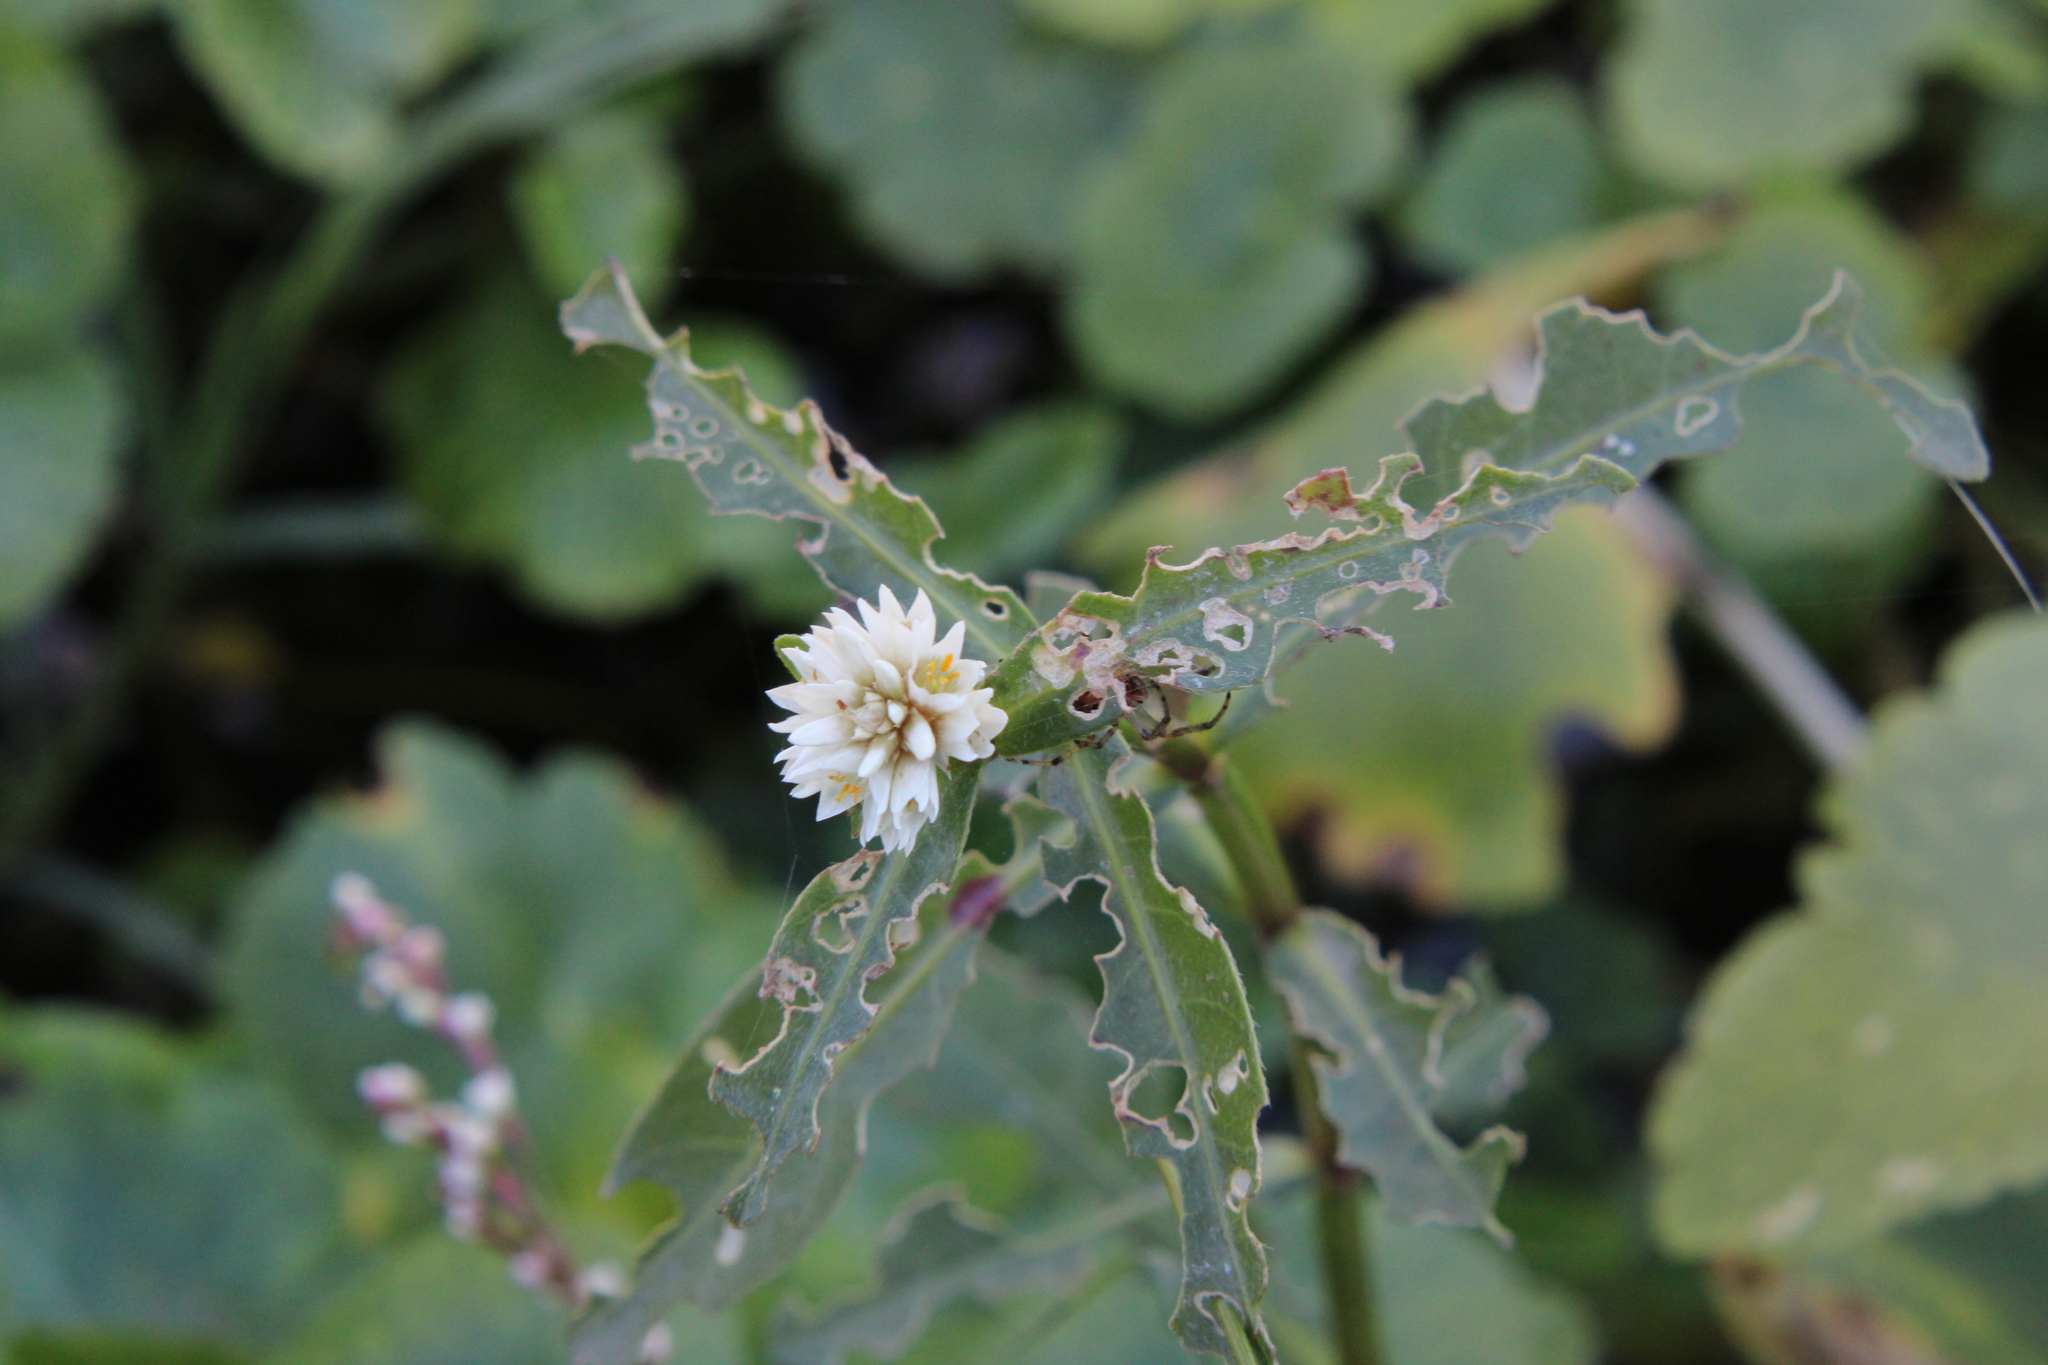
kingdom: Plantae
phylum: Tracheophyta
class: Magnoliopsida
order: Caryophyllales
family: Amaranthaceae
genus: Alternanthera
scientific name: Alternanthera philoxeroides
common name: Alligatorweed
